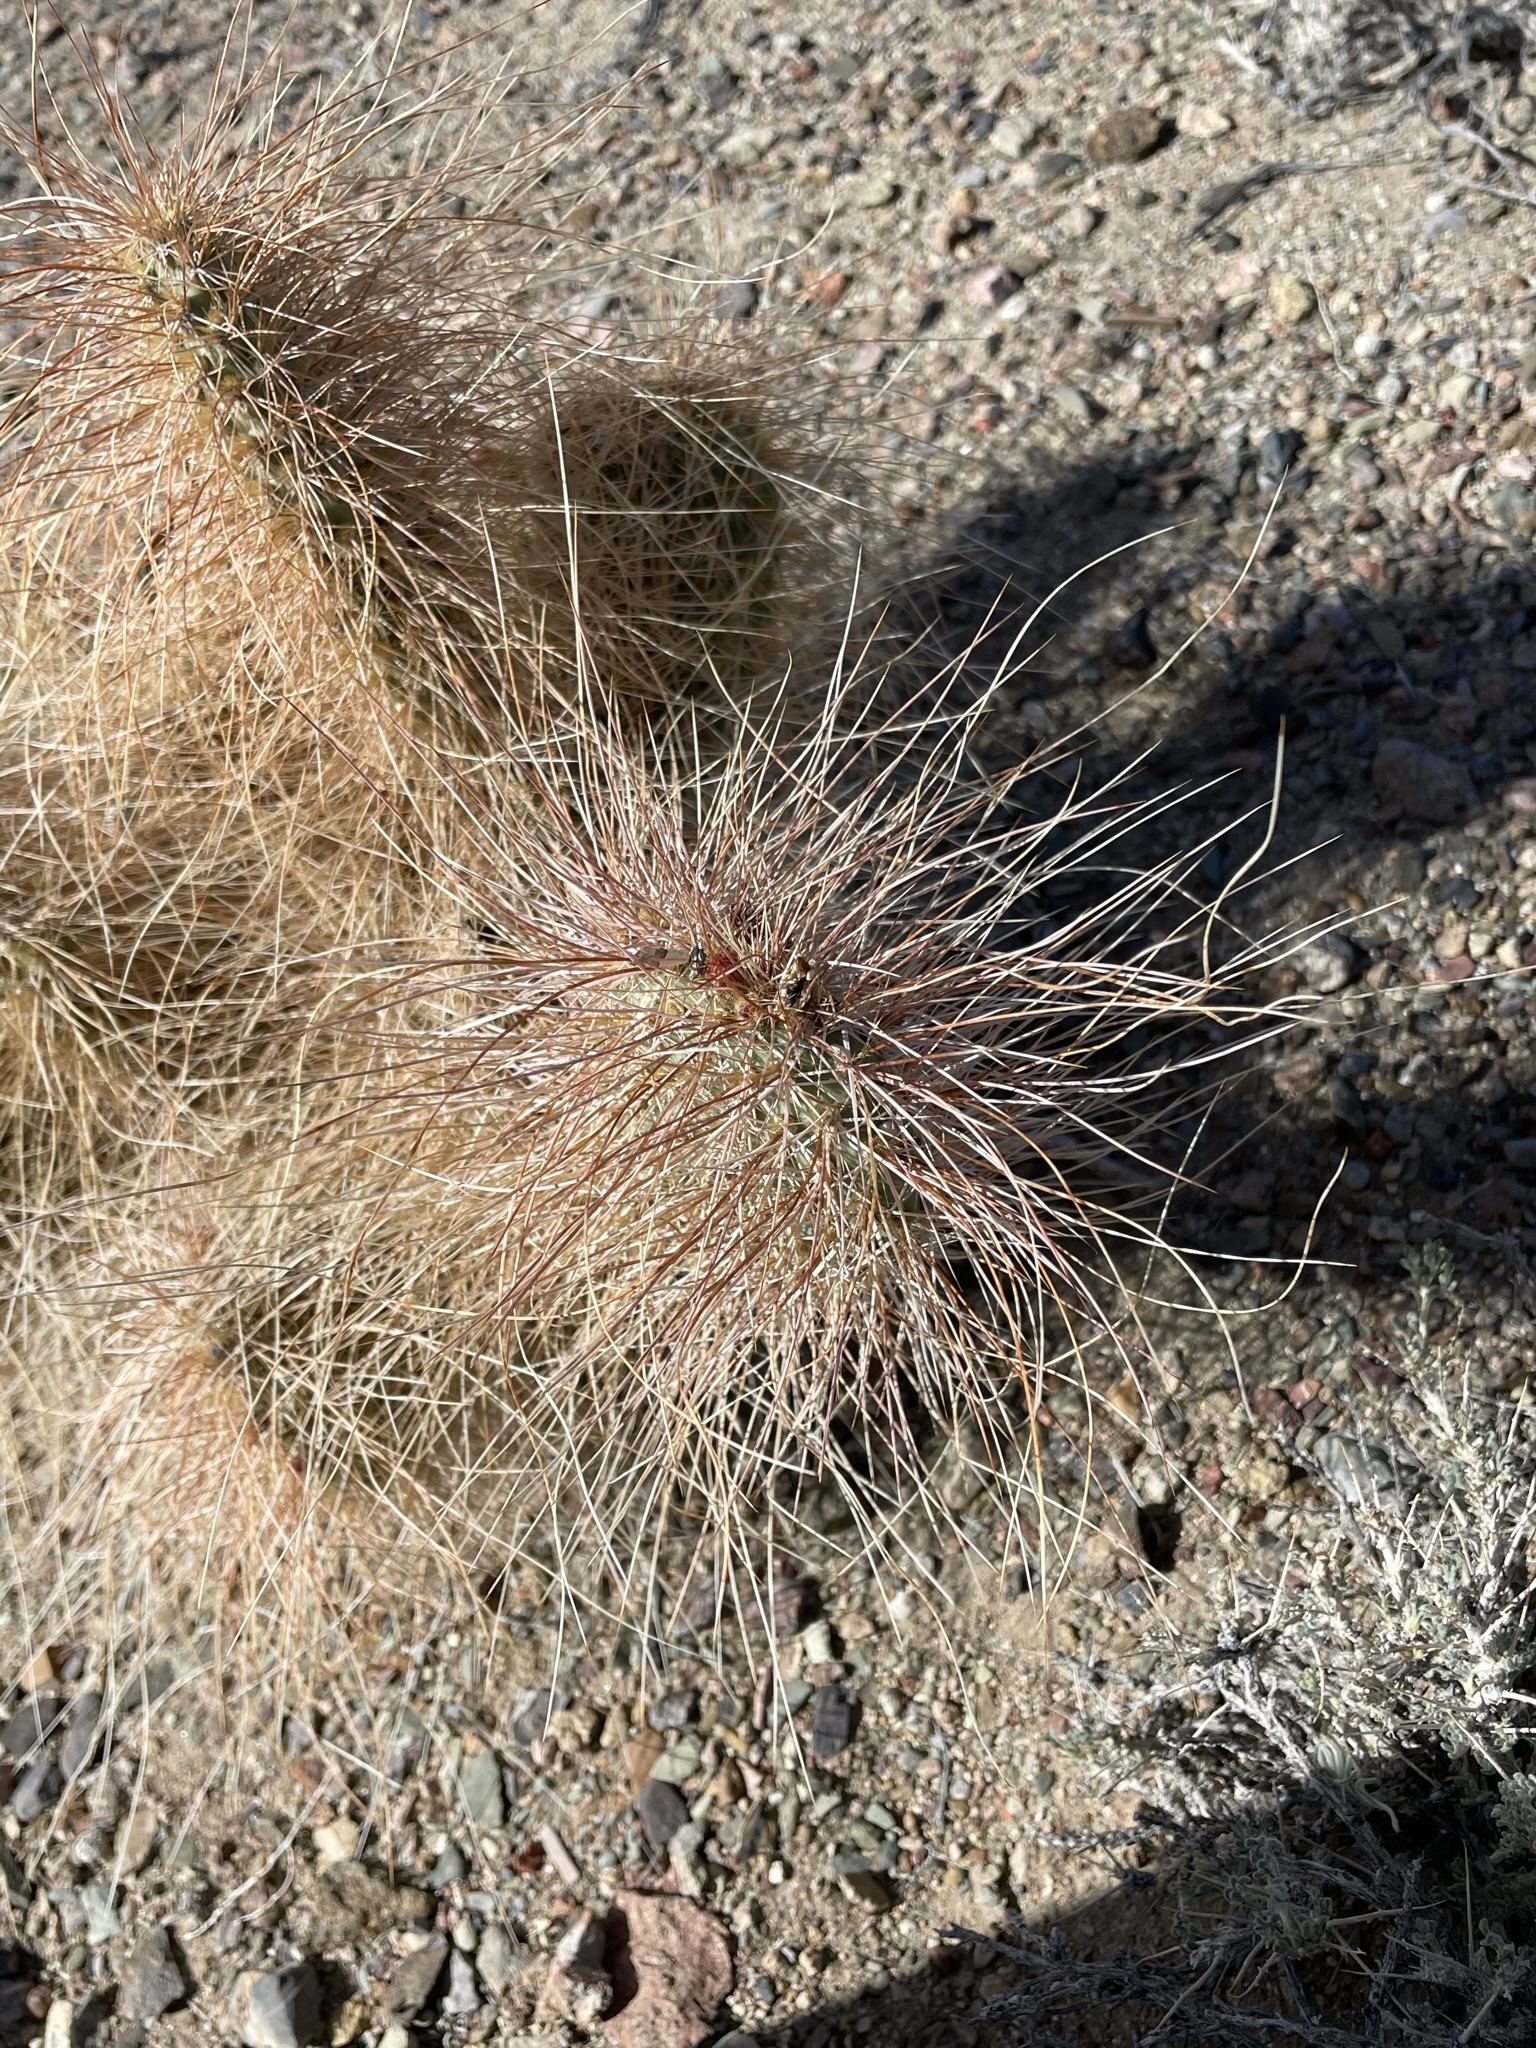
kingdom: Plantae
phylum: Tracheophyta
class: Magnoliopsida
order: Caryophyllales
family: Cactaceae
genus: Opuntia
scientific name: Opuntia polyacantha
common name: Plains prickly-pear
